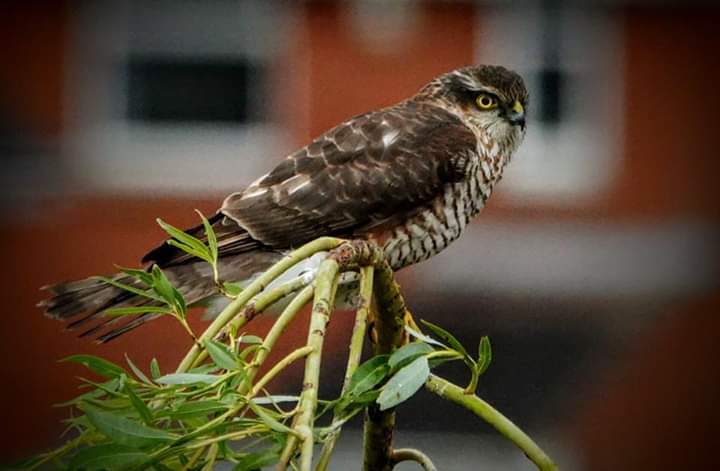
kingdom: Animalia
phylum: Chordata
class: Aves
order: Accipitriformes
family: Accipitridae
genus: Accipiter
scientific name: Accipiter nisus
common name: Eurasian sparrowhawk
